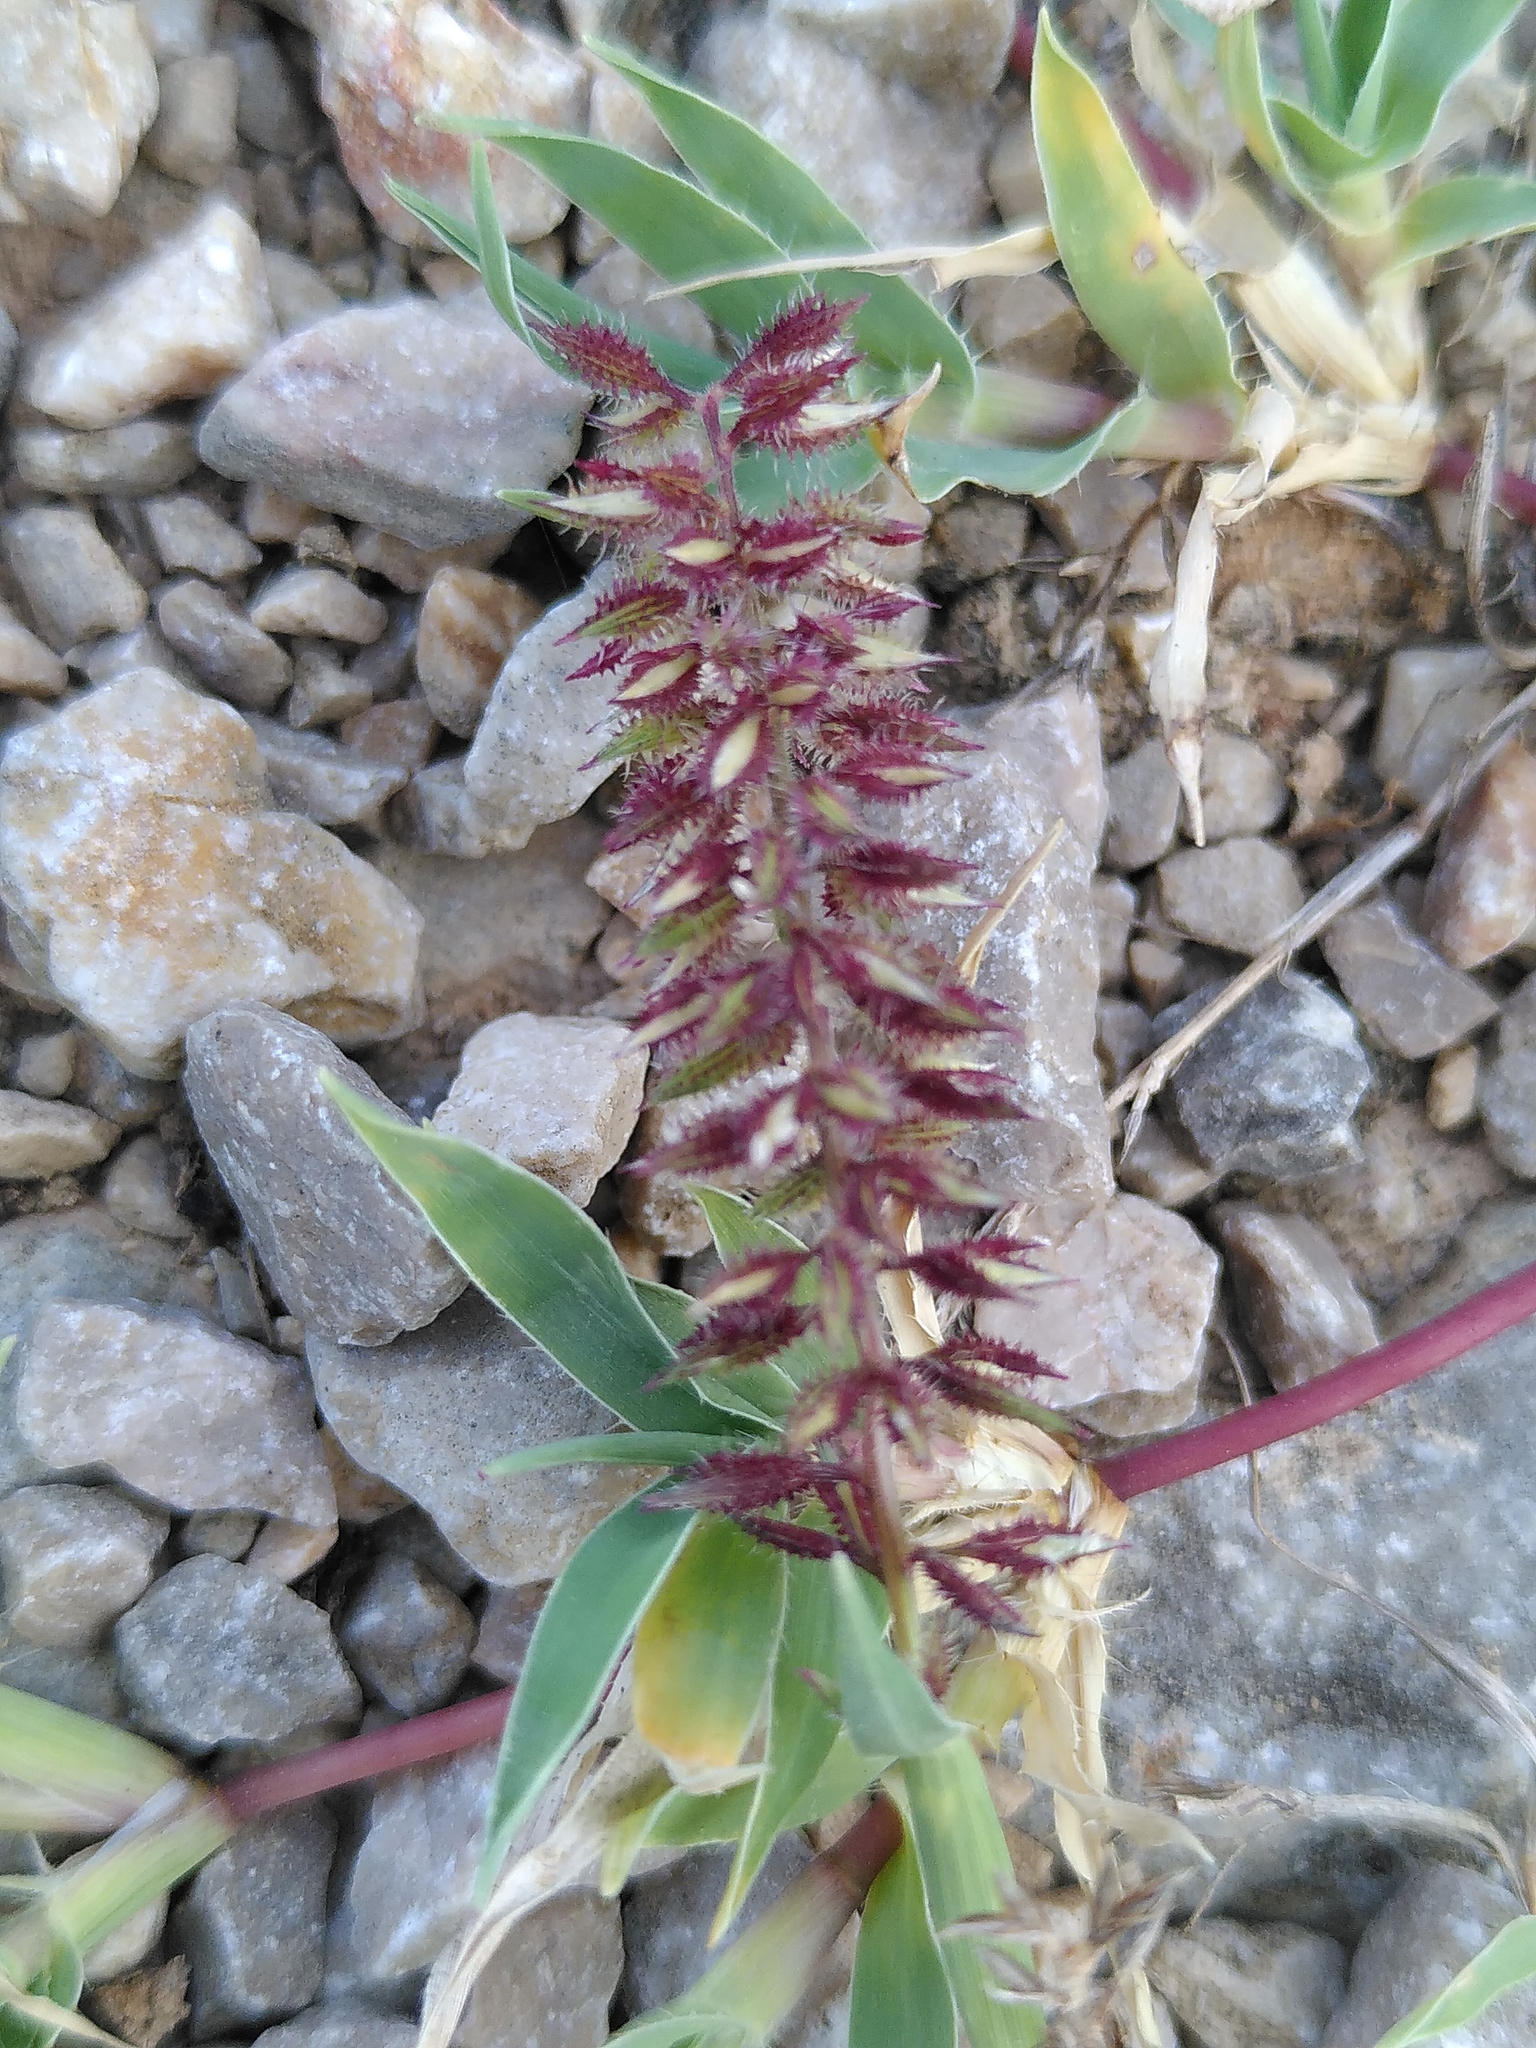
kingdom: Plantae
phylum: Tracheophyta
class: Liliopsida
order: Poales
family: Poaceae
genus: Tragus
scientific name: Tragus racemosus
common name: European bur-grass
